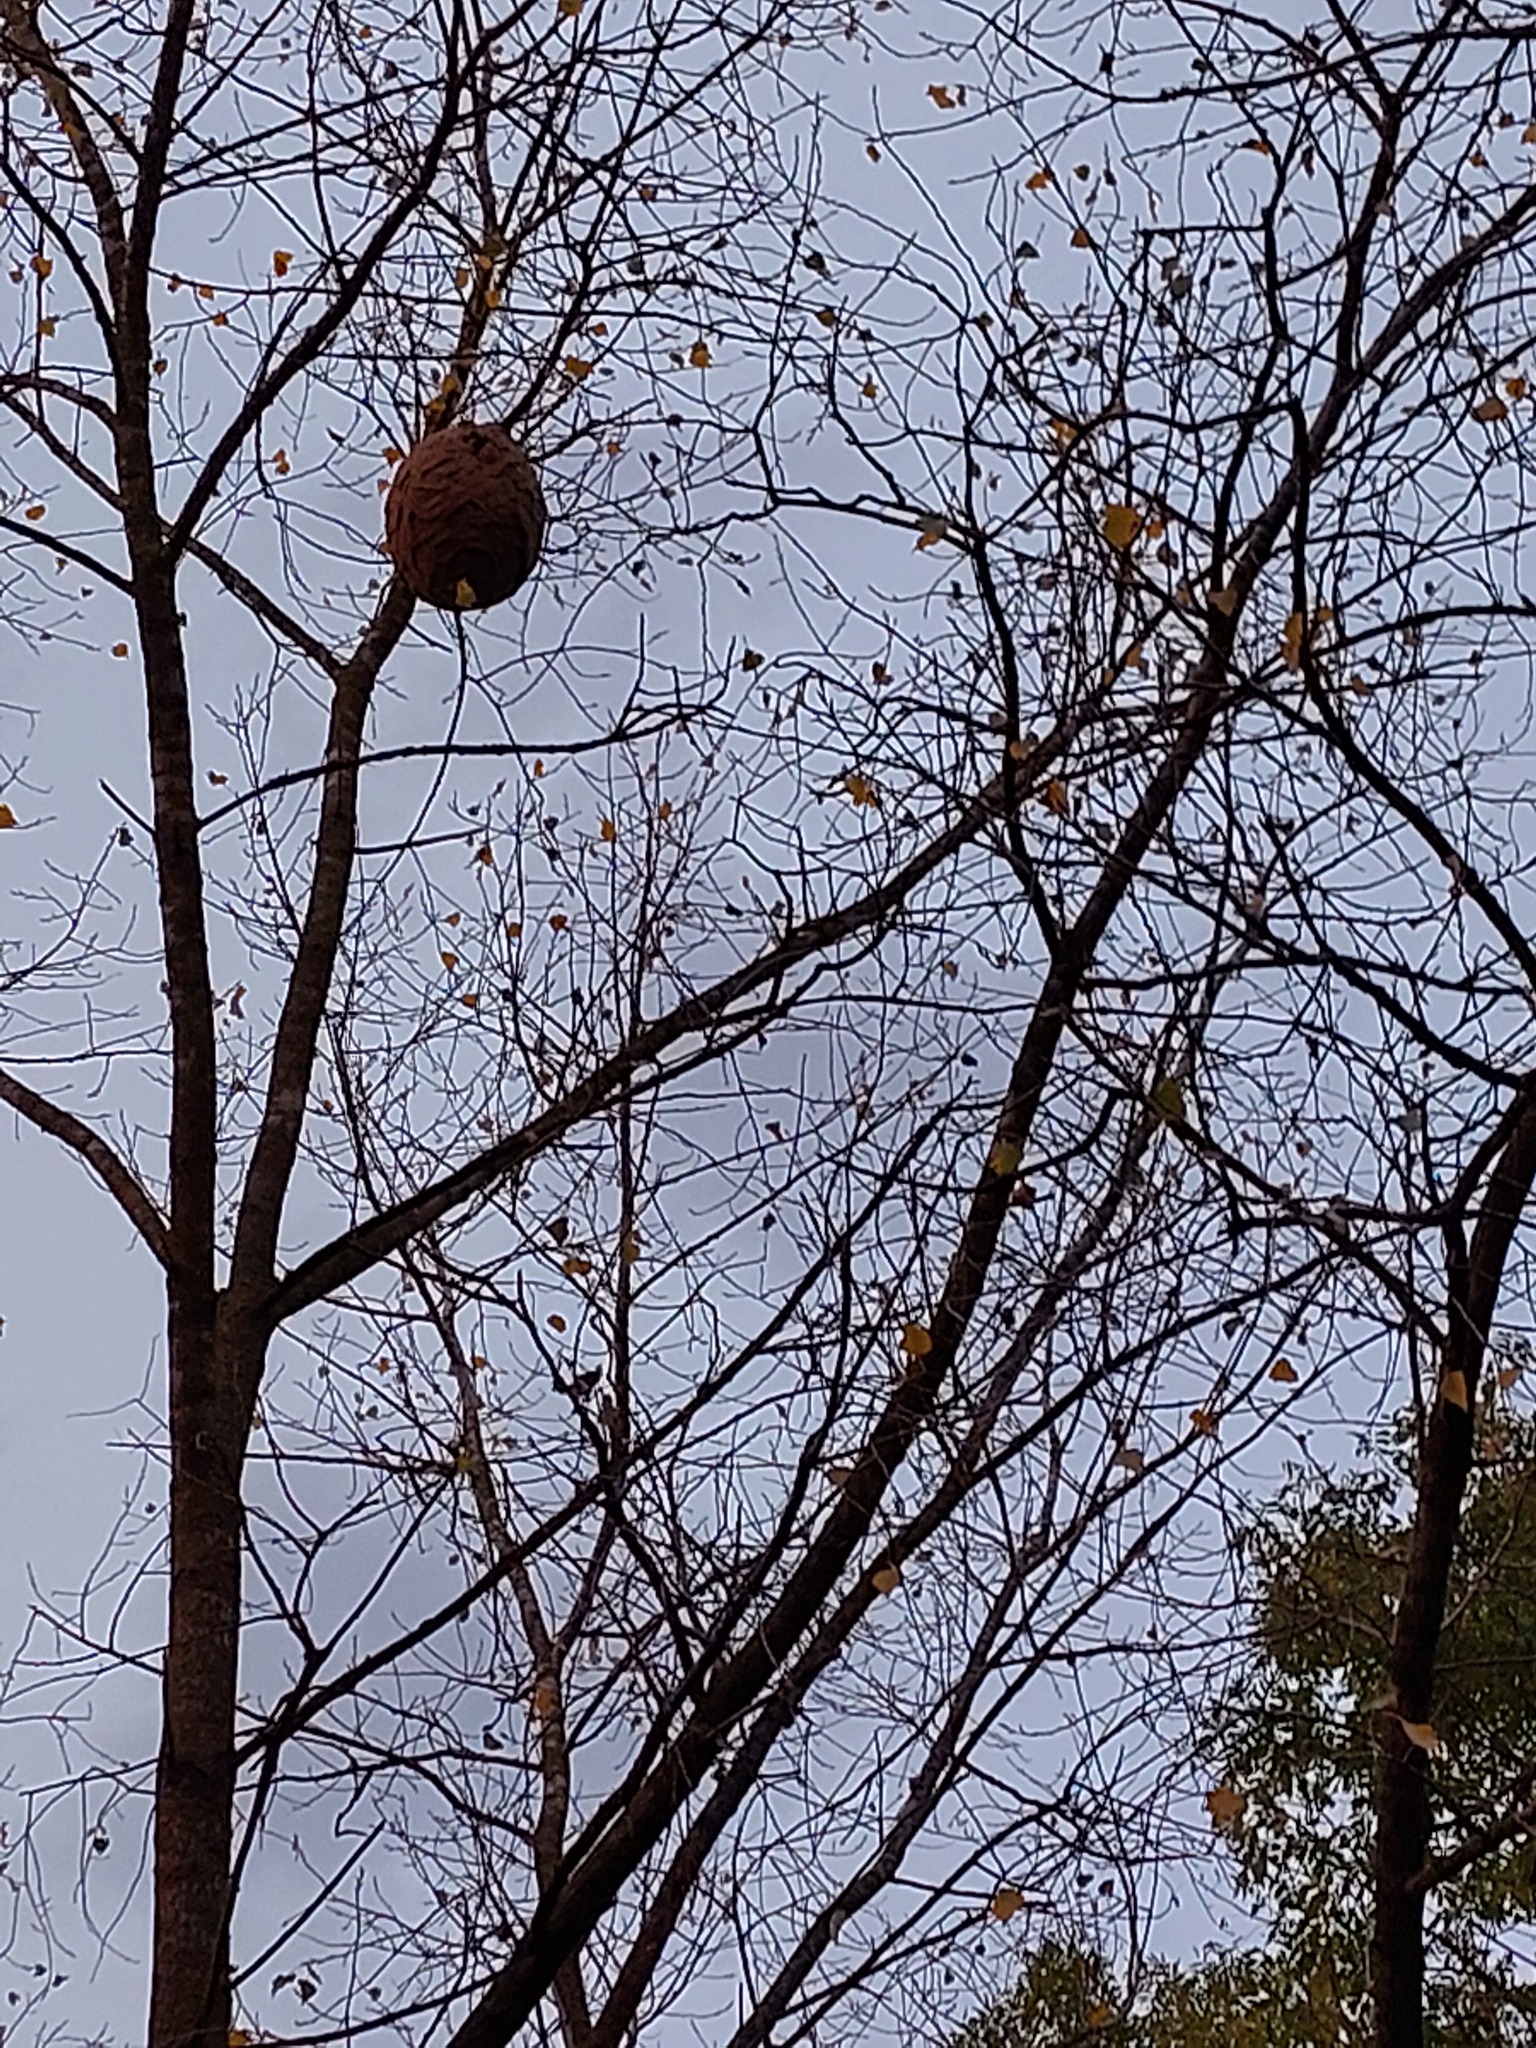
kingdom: Animalia
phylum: Arthropoda
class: Insecta
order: Hymenoptera
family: Vespidae
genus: Vespa
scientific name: Vespa velutina
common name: Asian hornet
